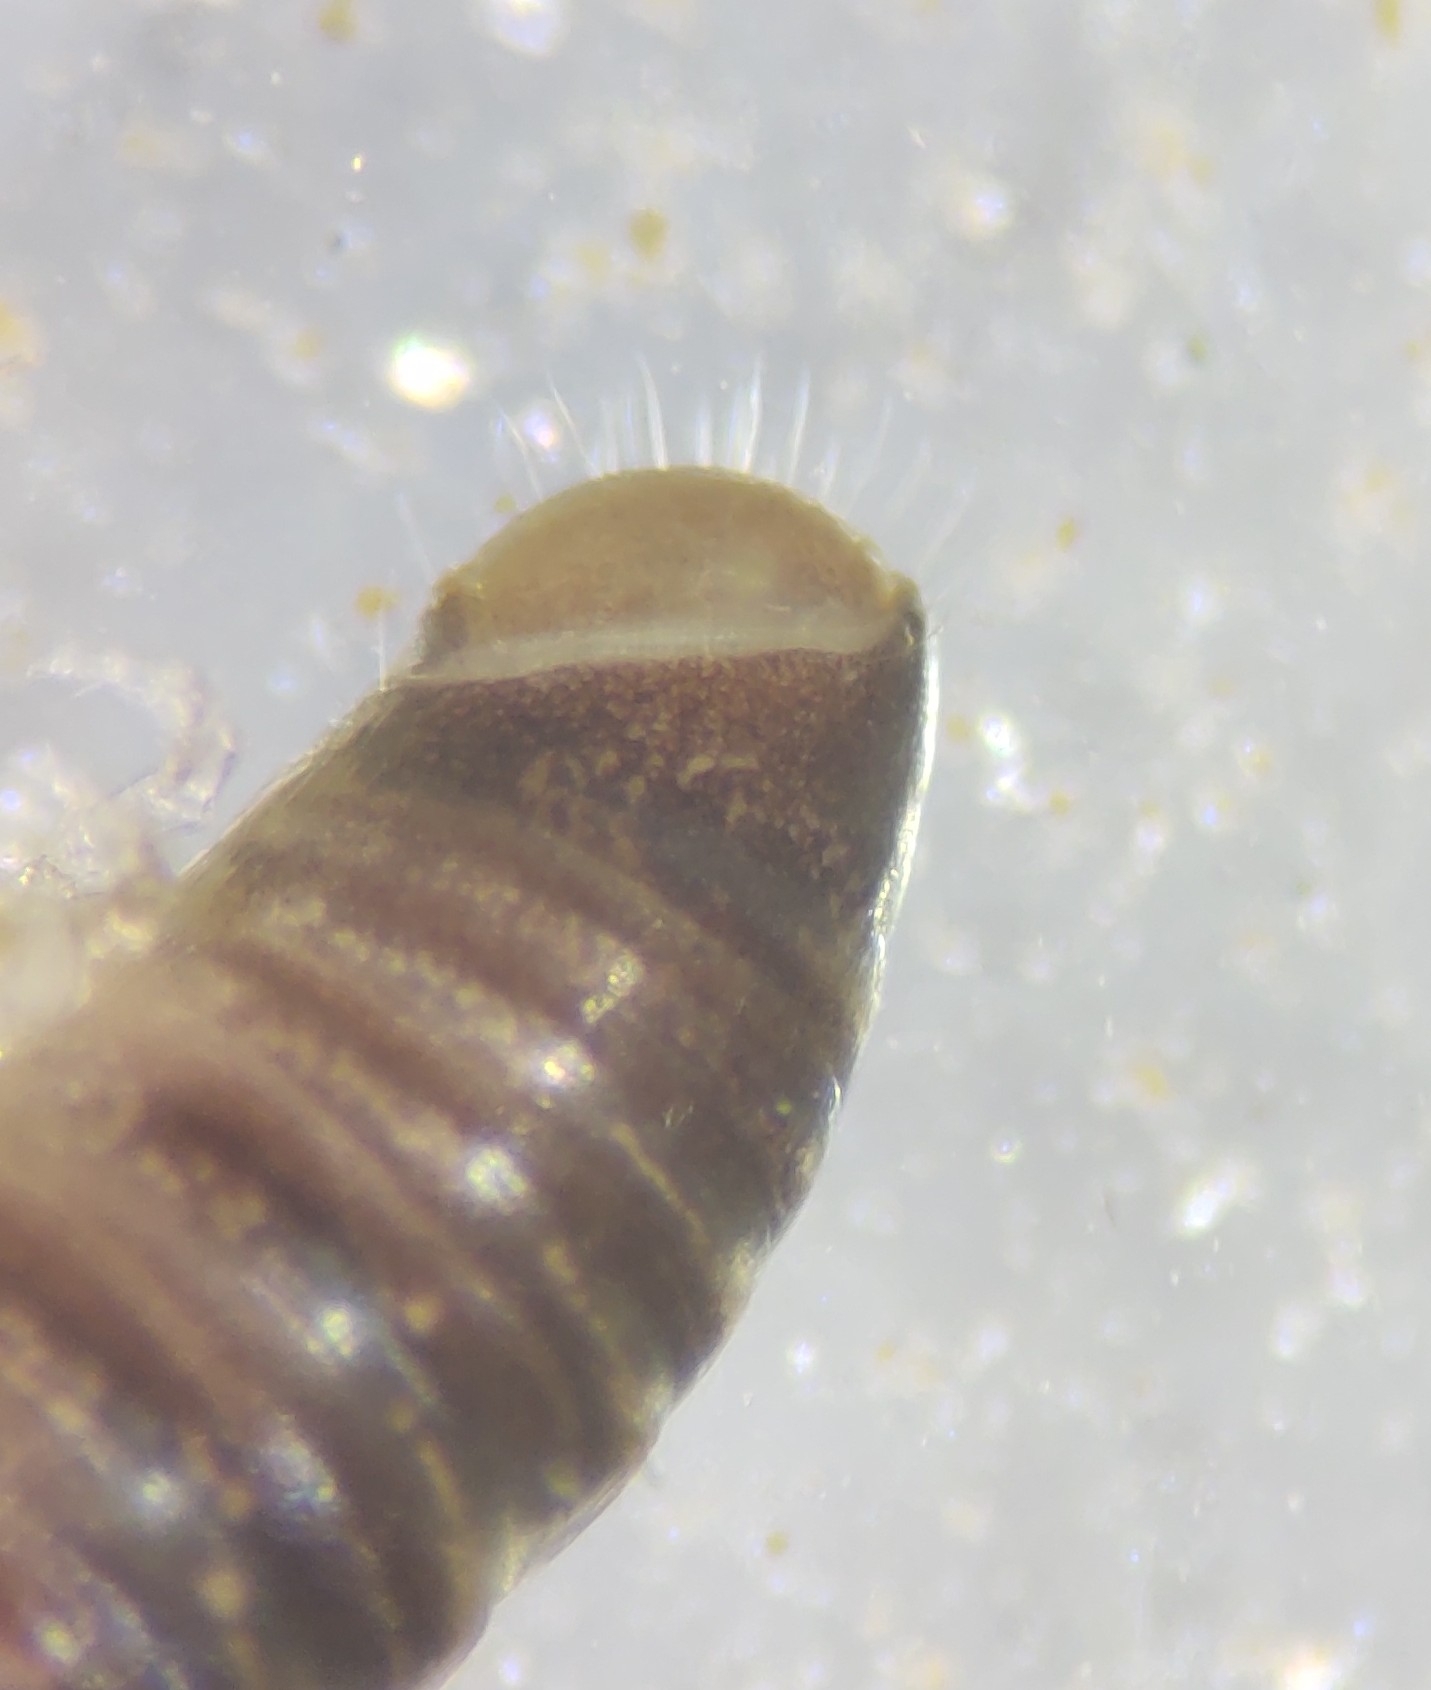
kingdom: Animalia
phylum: Arthropoda
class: Diplopoda
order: Julida
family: Julidae
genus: Cylindroiulus
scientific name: Cylindroiulus truncorum
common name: Millipede
